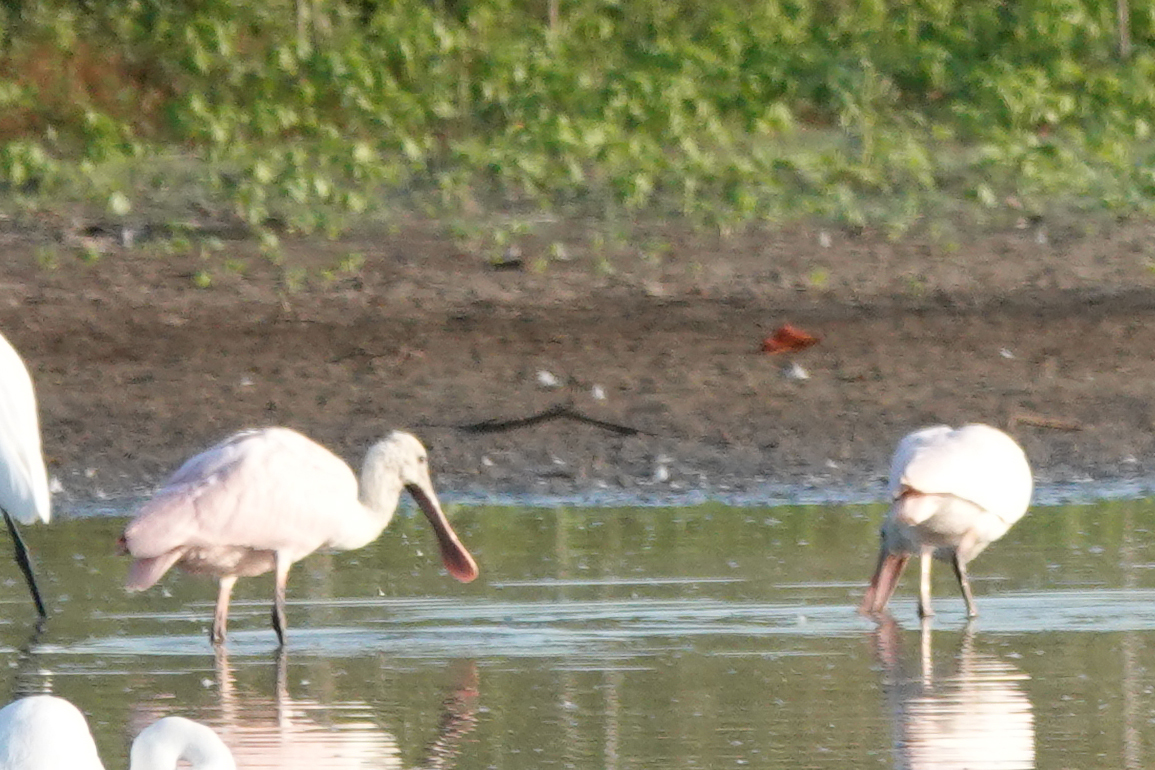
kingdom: Animalia
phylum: Chordata
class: Aves
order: Pelecaniformes
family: Threskiornithidae
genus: Platalea
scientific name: Platalea ajaja
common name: Roseate spoonbill
